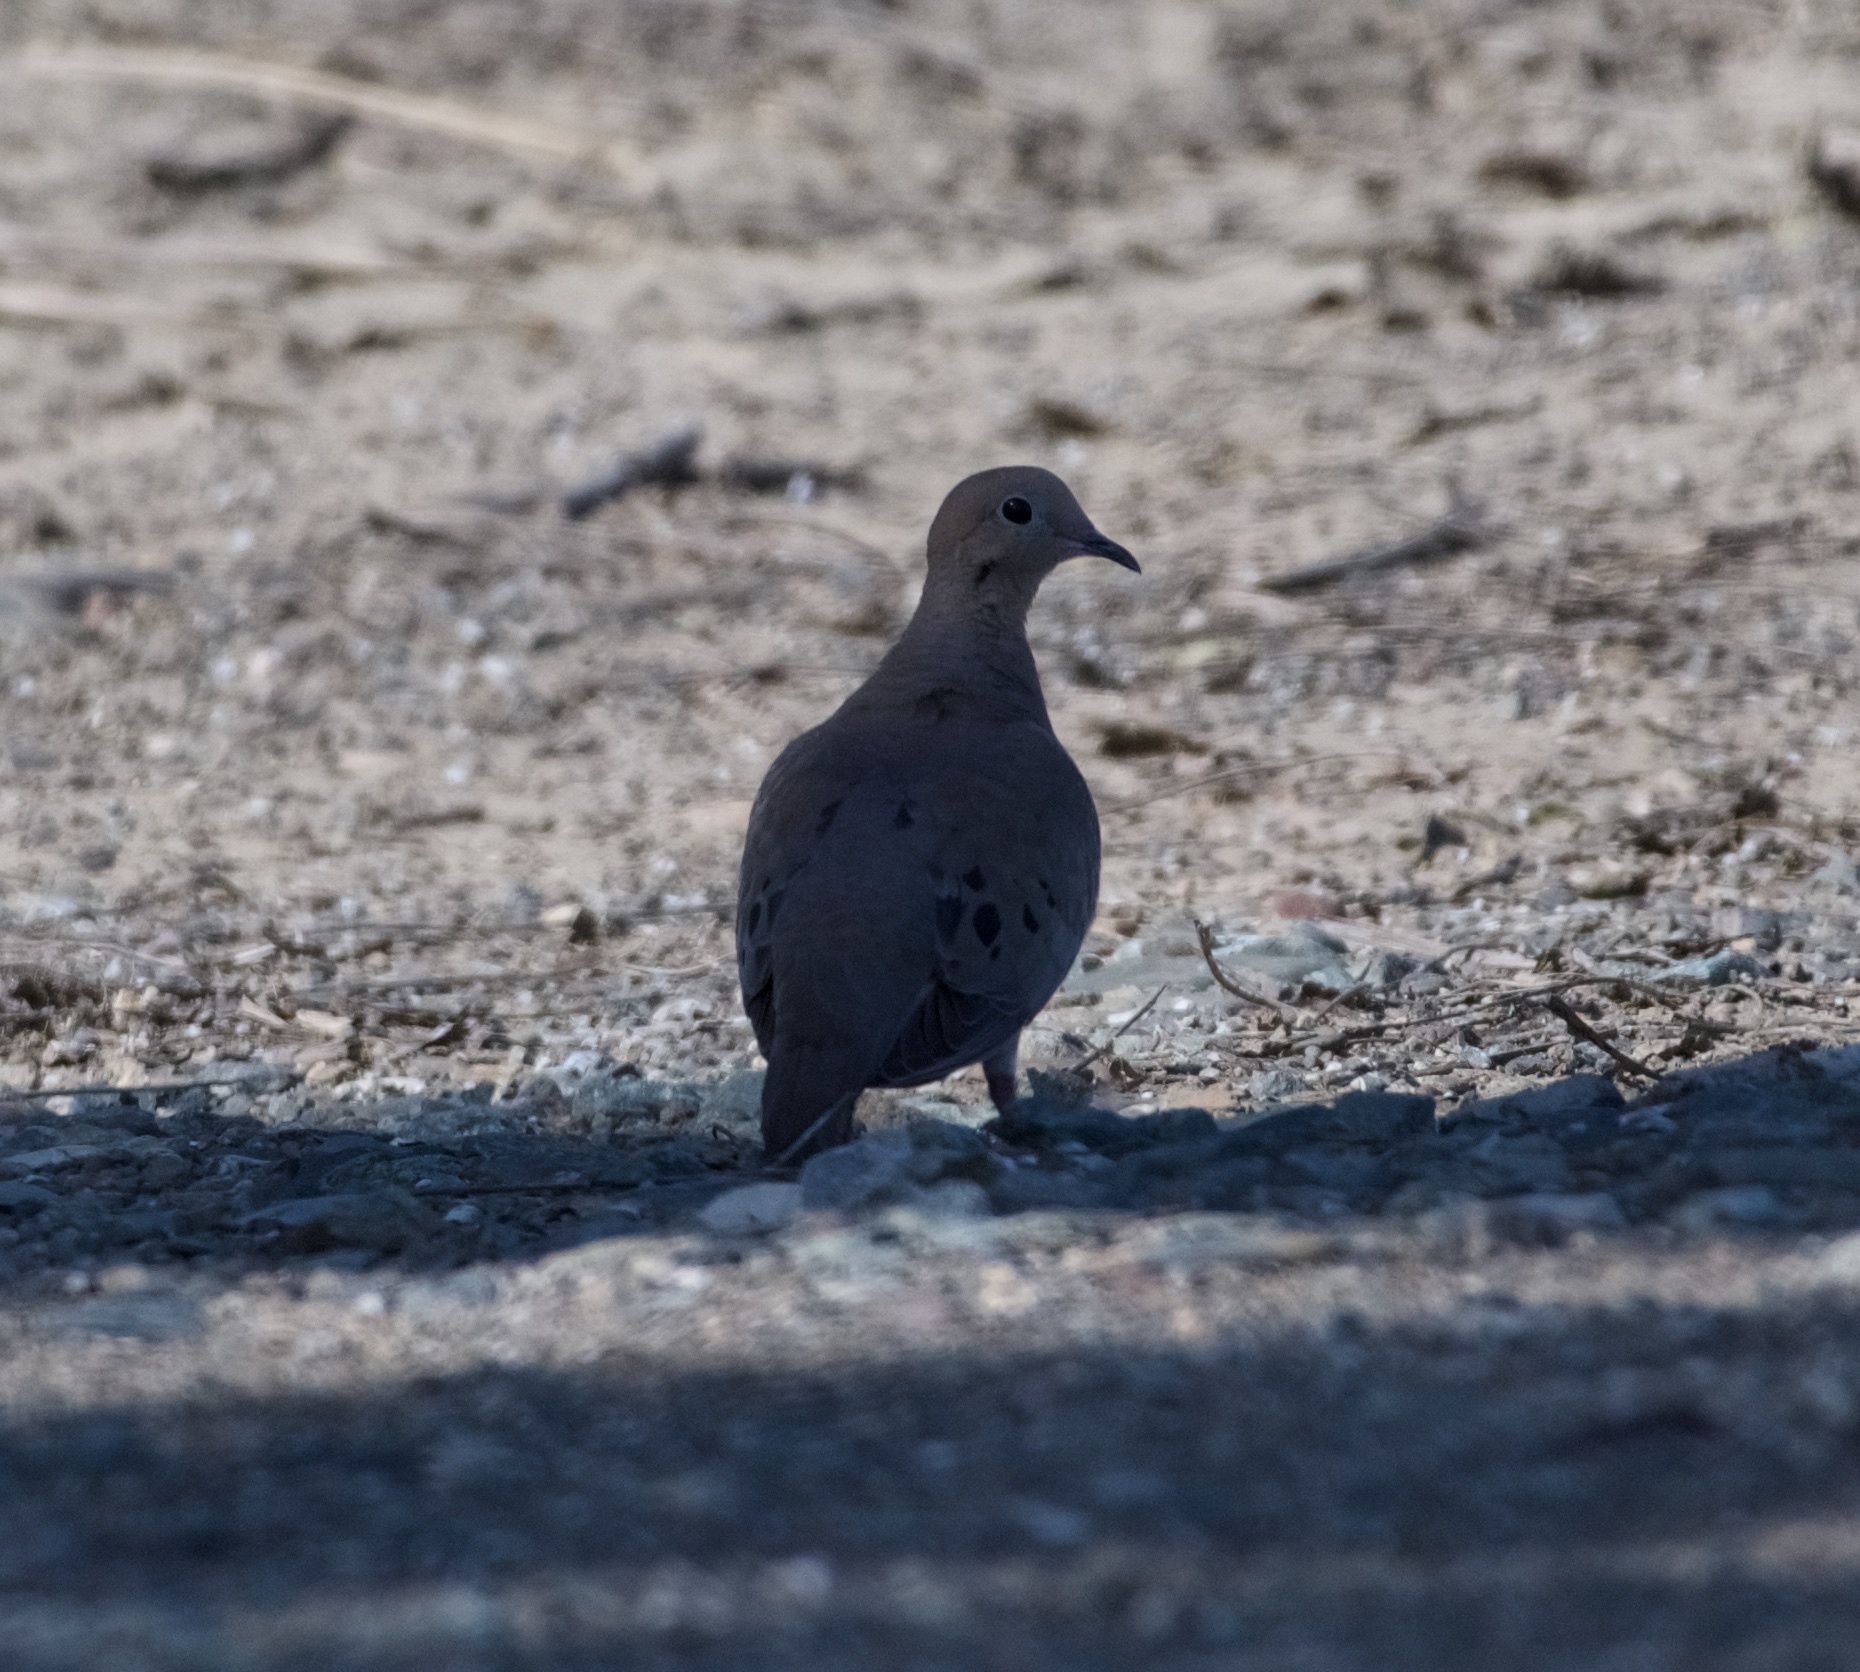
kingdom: Animalia
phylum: Chordata
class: Aves
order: Columbiformes
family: Columbidae
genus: Zenaida
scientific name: Zenaida macroura
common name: Mourning dove
